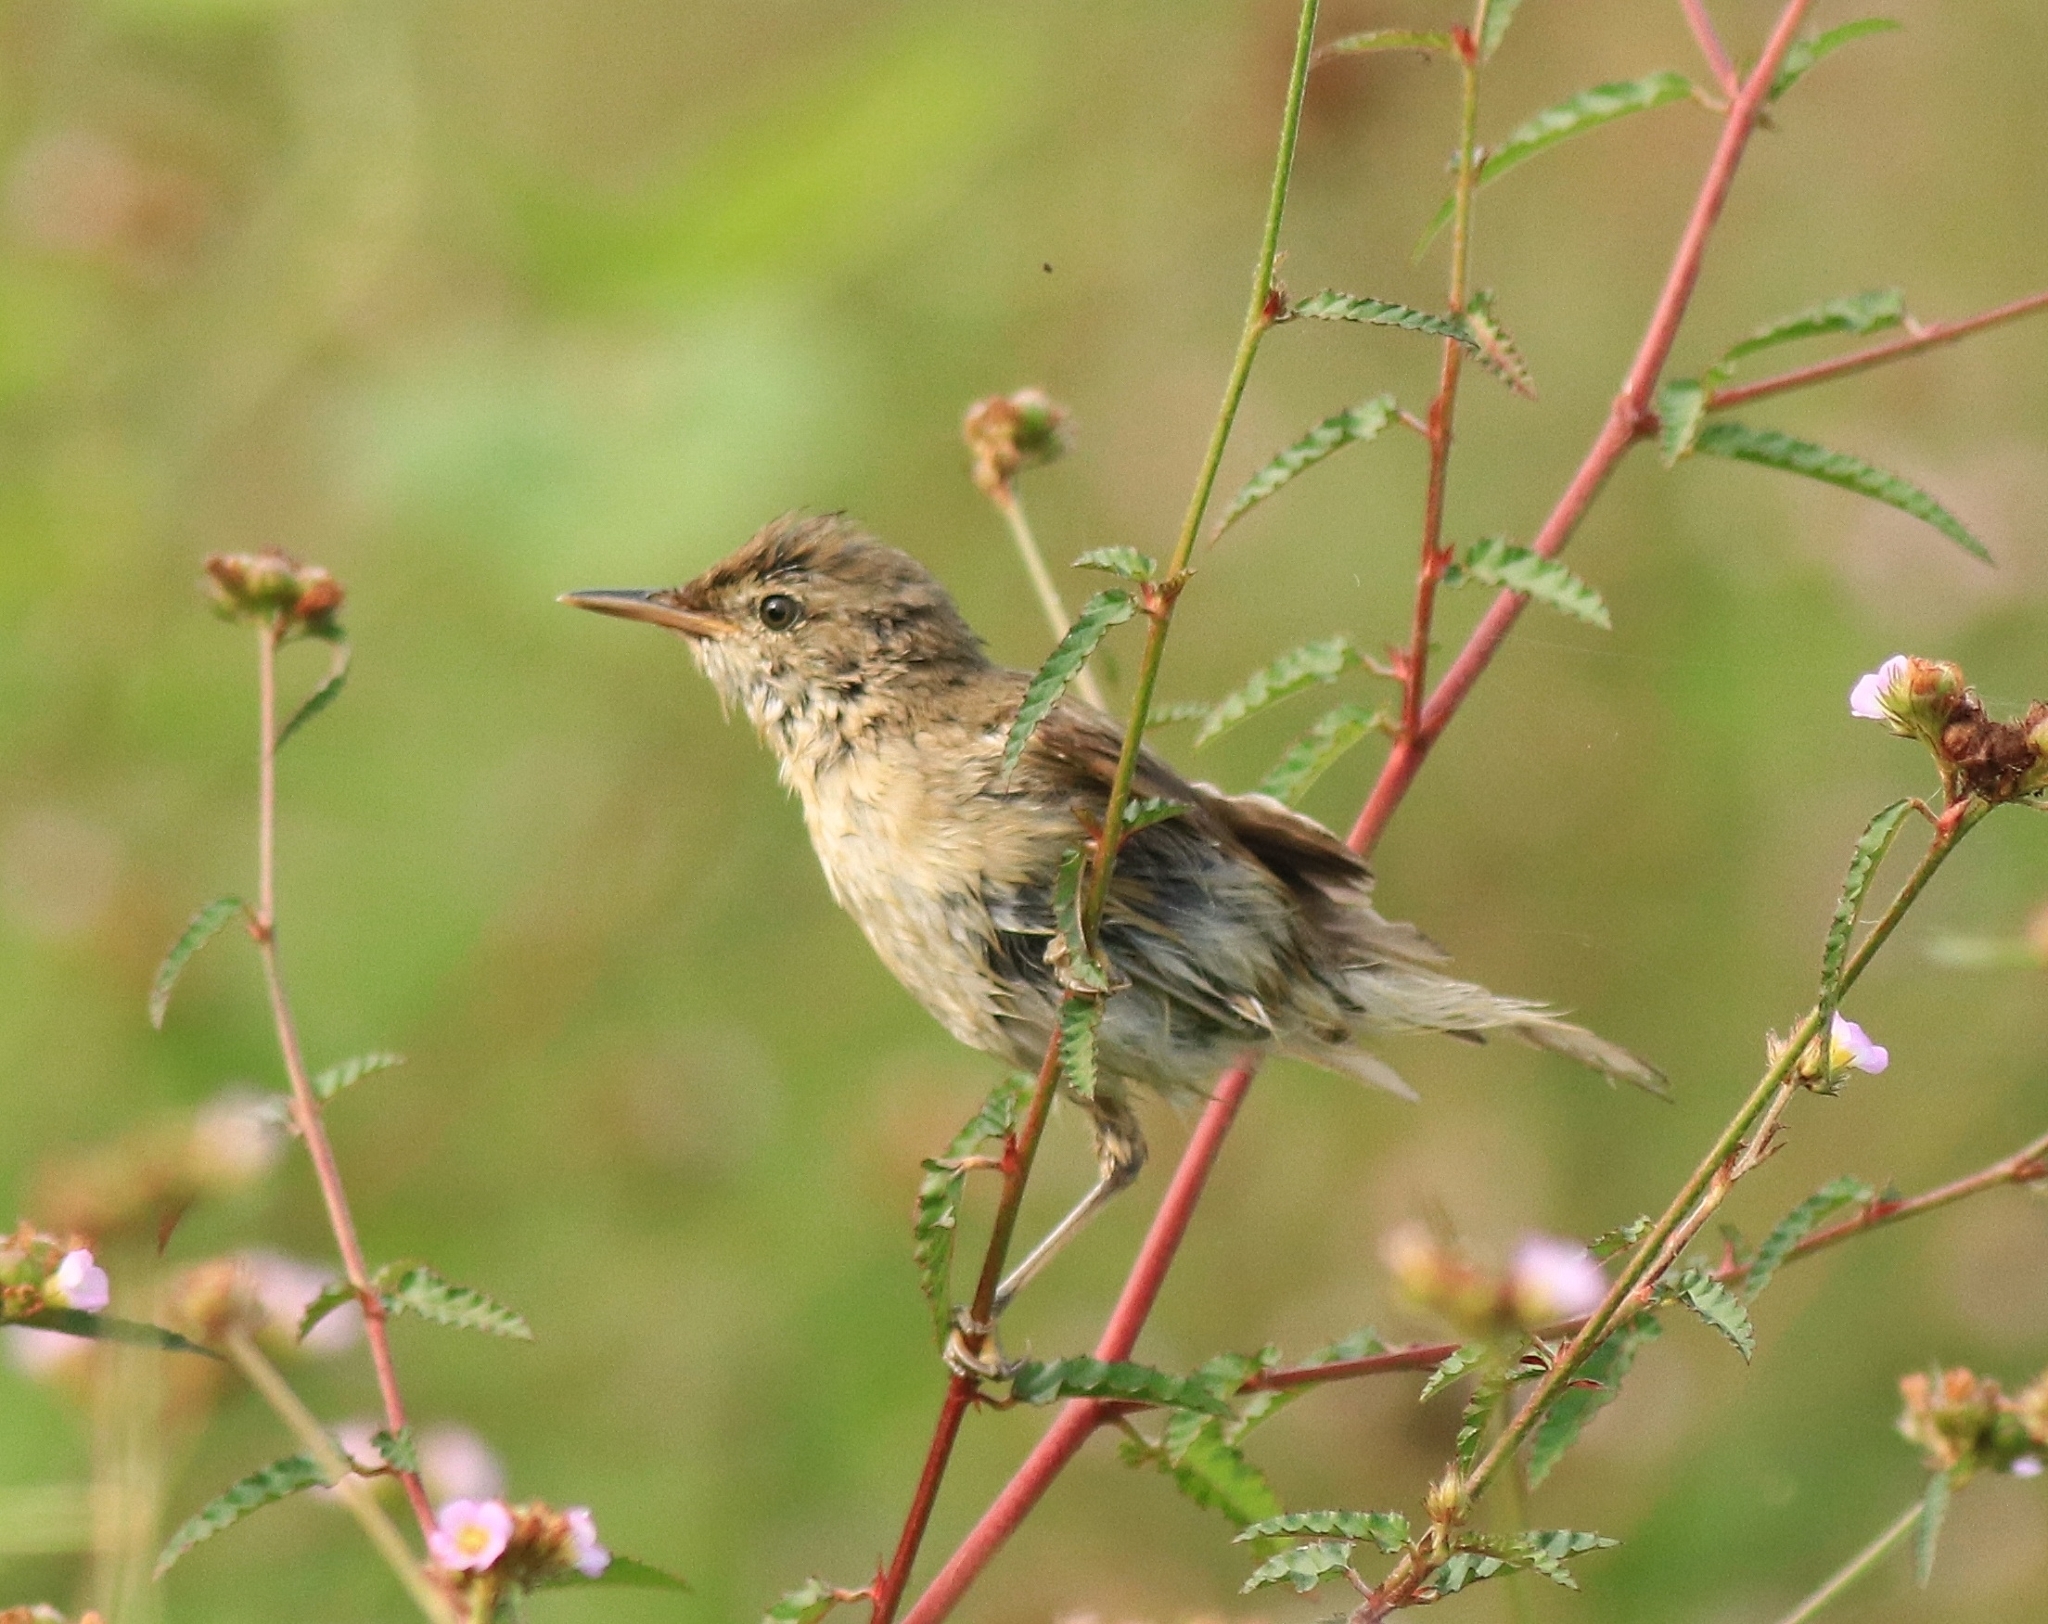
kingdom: Animalia
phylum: Chordata
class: Aves
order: Passeriformes
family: Acrocephalidae
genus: Iduna
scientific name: Iduna caligata
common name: Booted warbler
